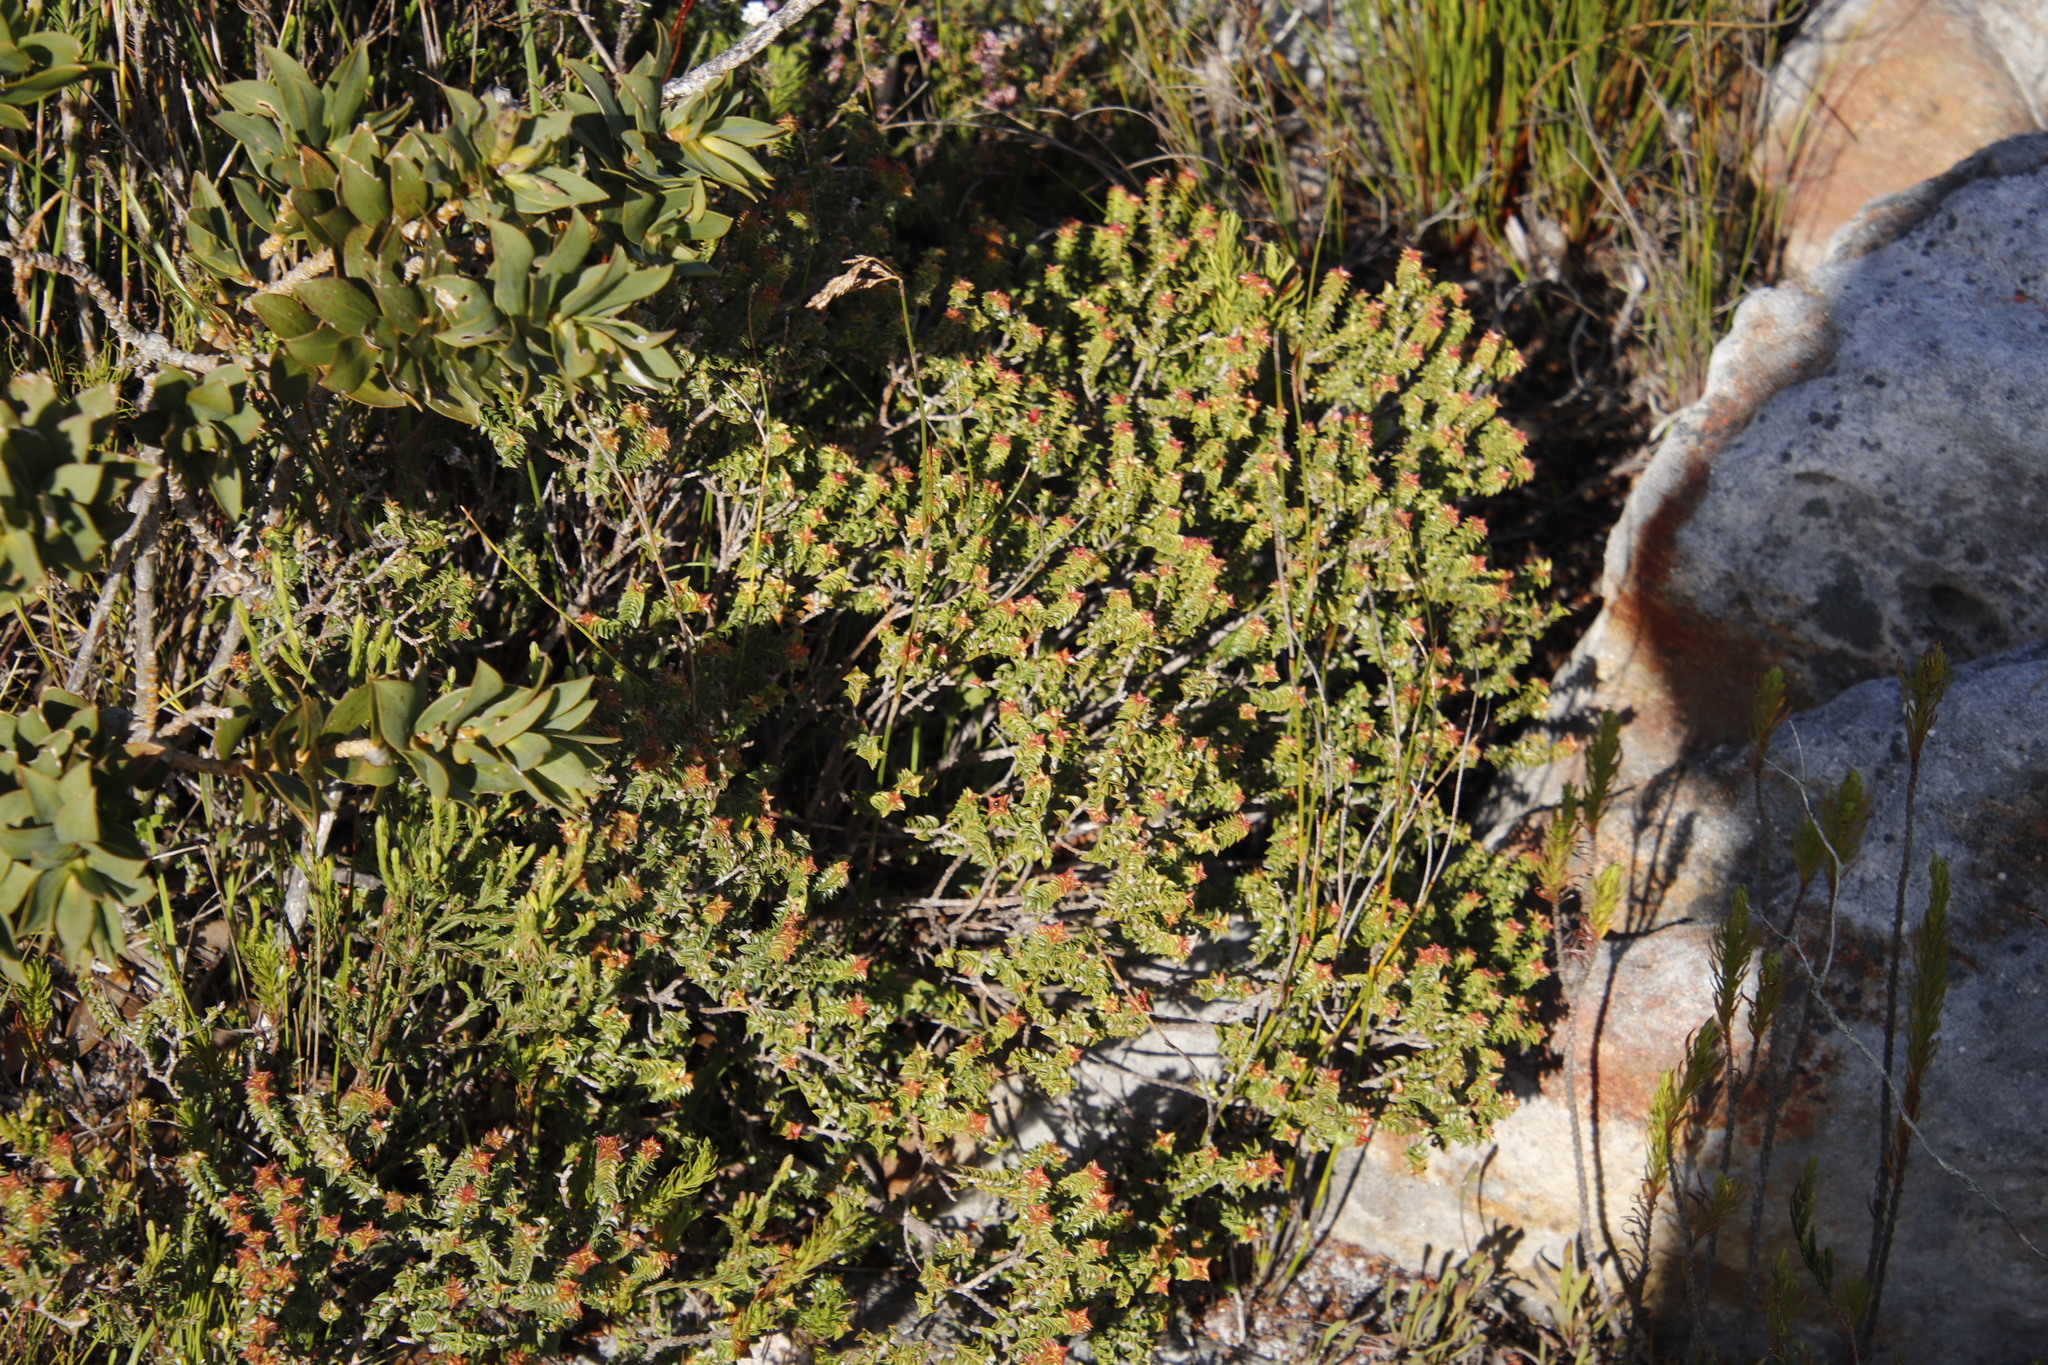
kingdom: Plantae
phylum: Tracheophyta
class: Magnoliopsida
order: Myrtales
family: Penaeaceae
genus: Penaea
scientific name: Penaea mucronata
